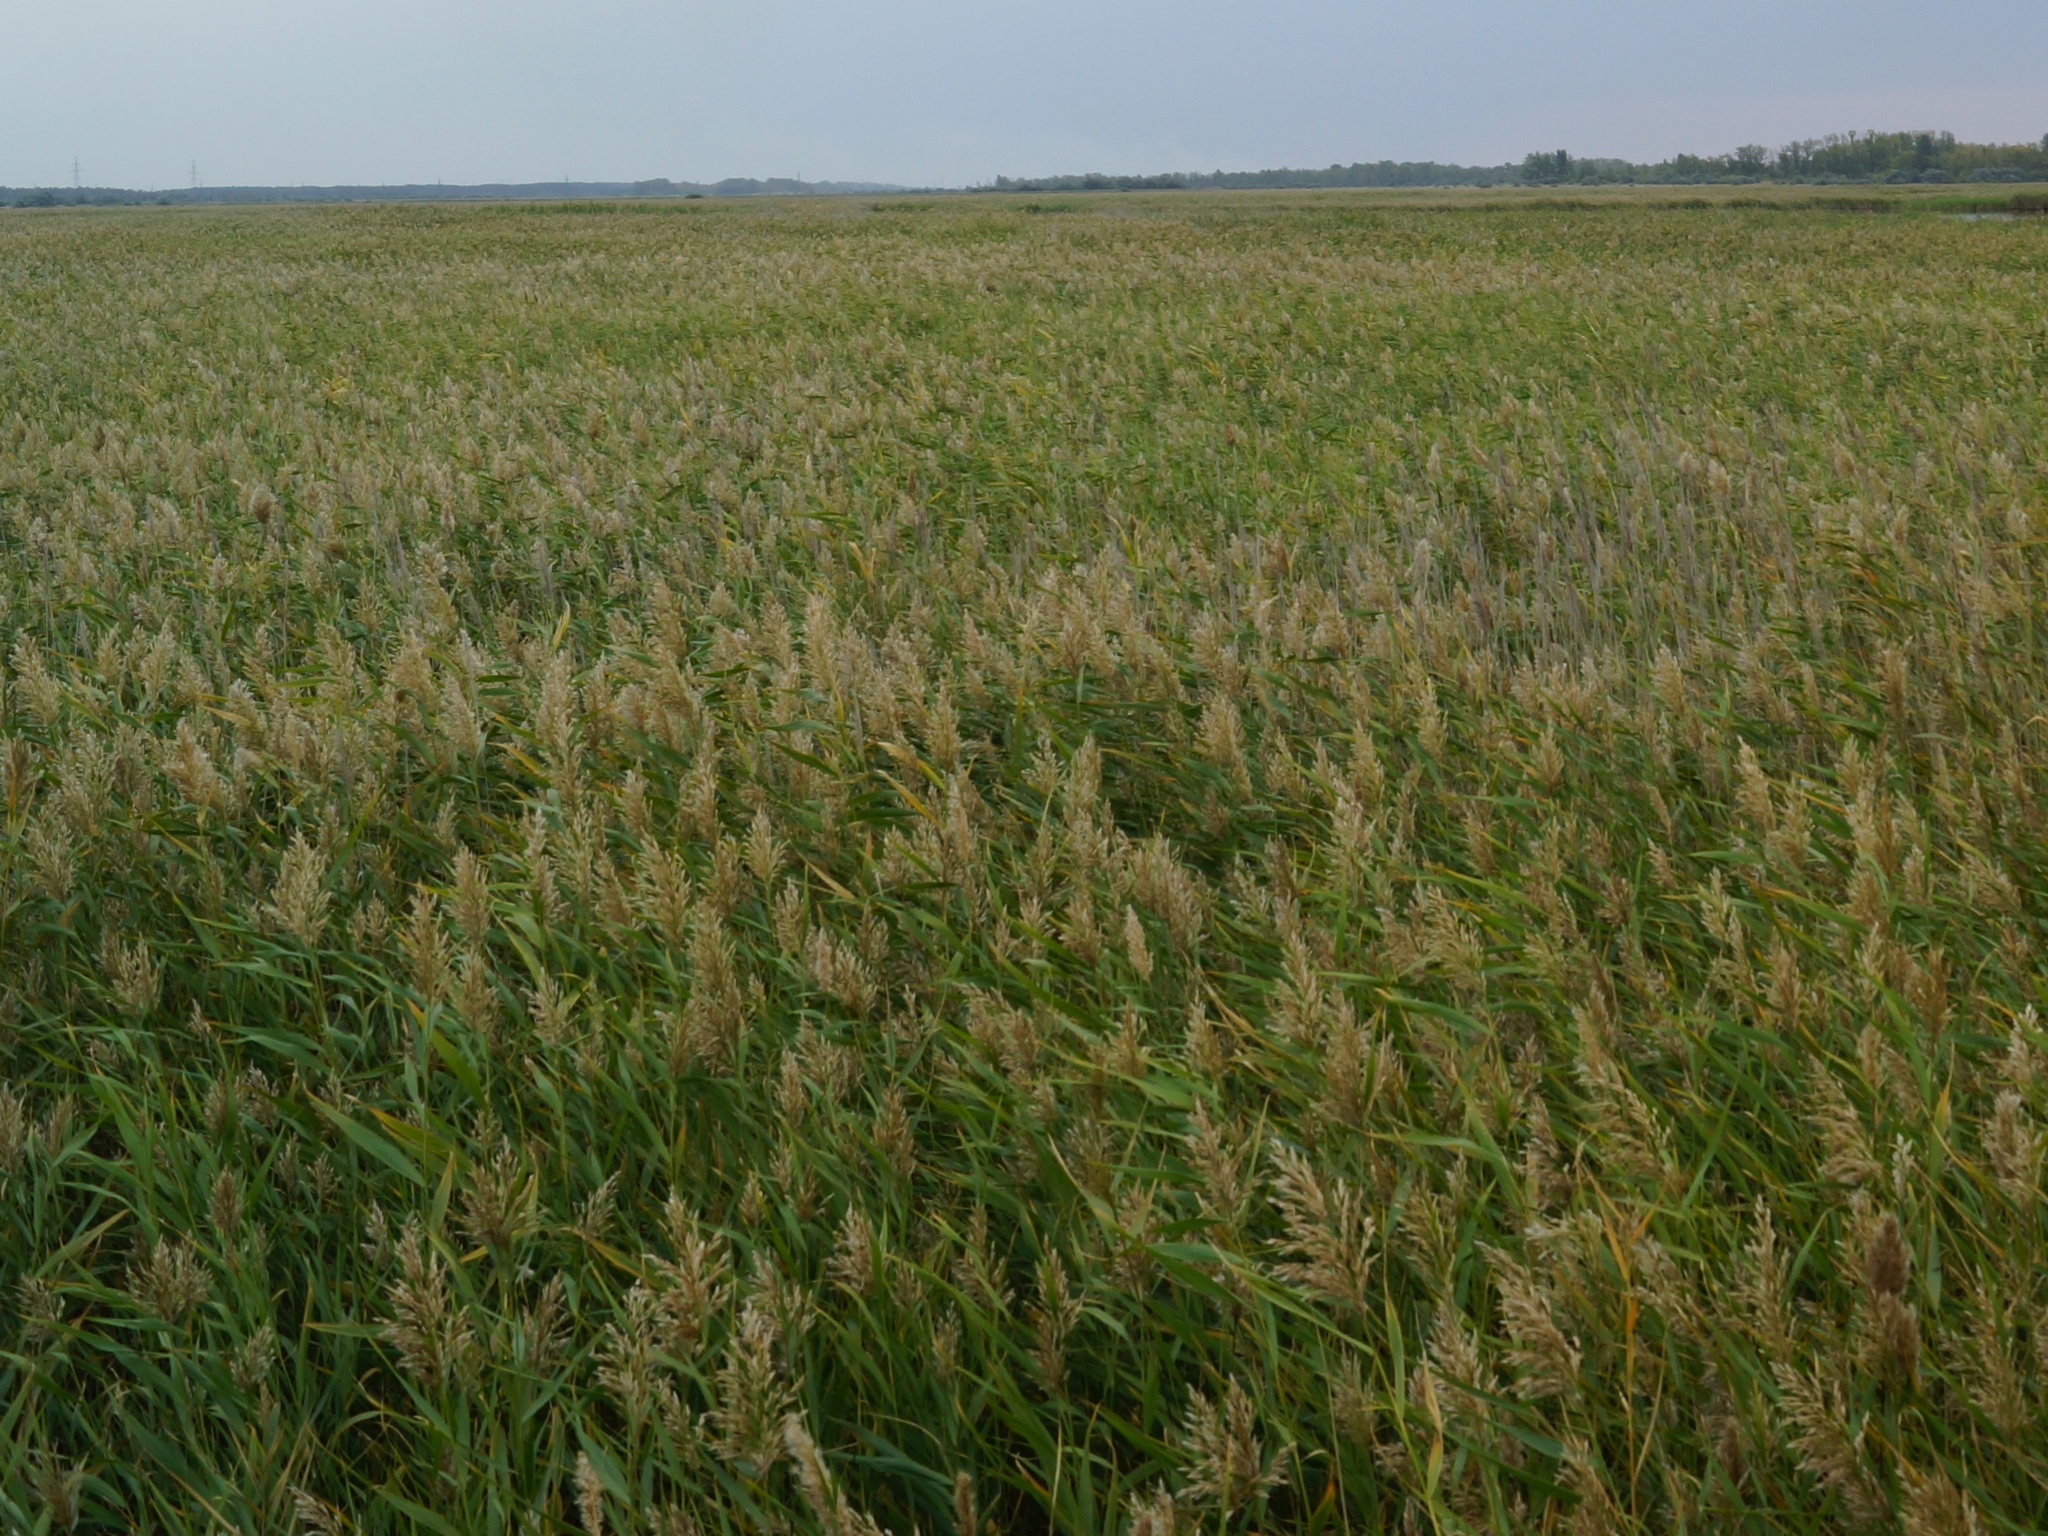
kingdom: Plantae
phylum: Tracheophyta
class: Liliopsida
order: Poales
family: Poaceae
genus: Phragmites
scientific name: Phragmites australis
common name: Common reed
